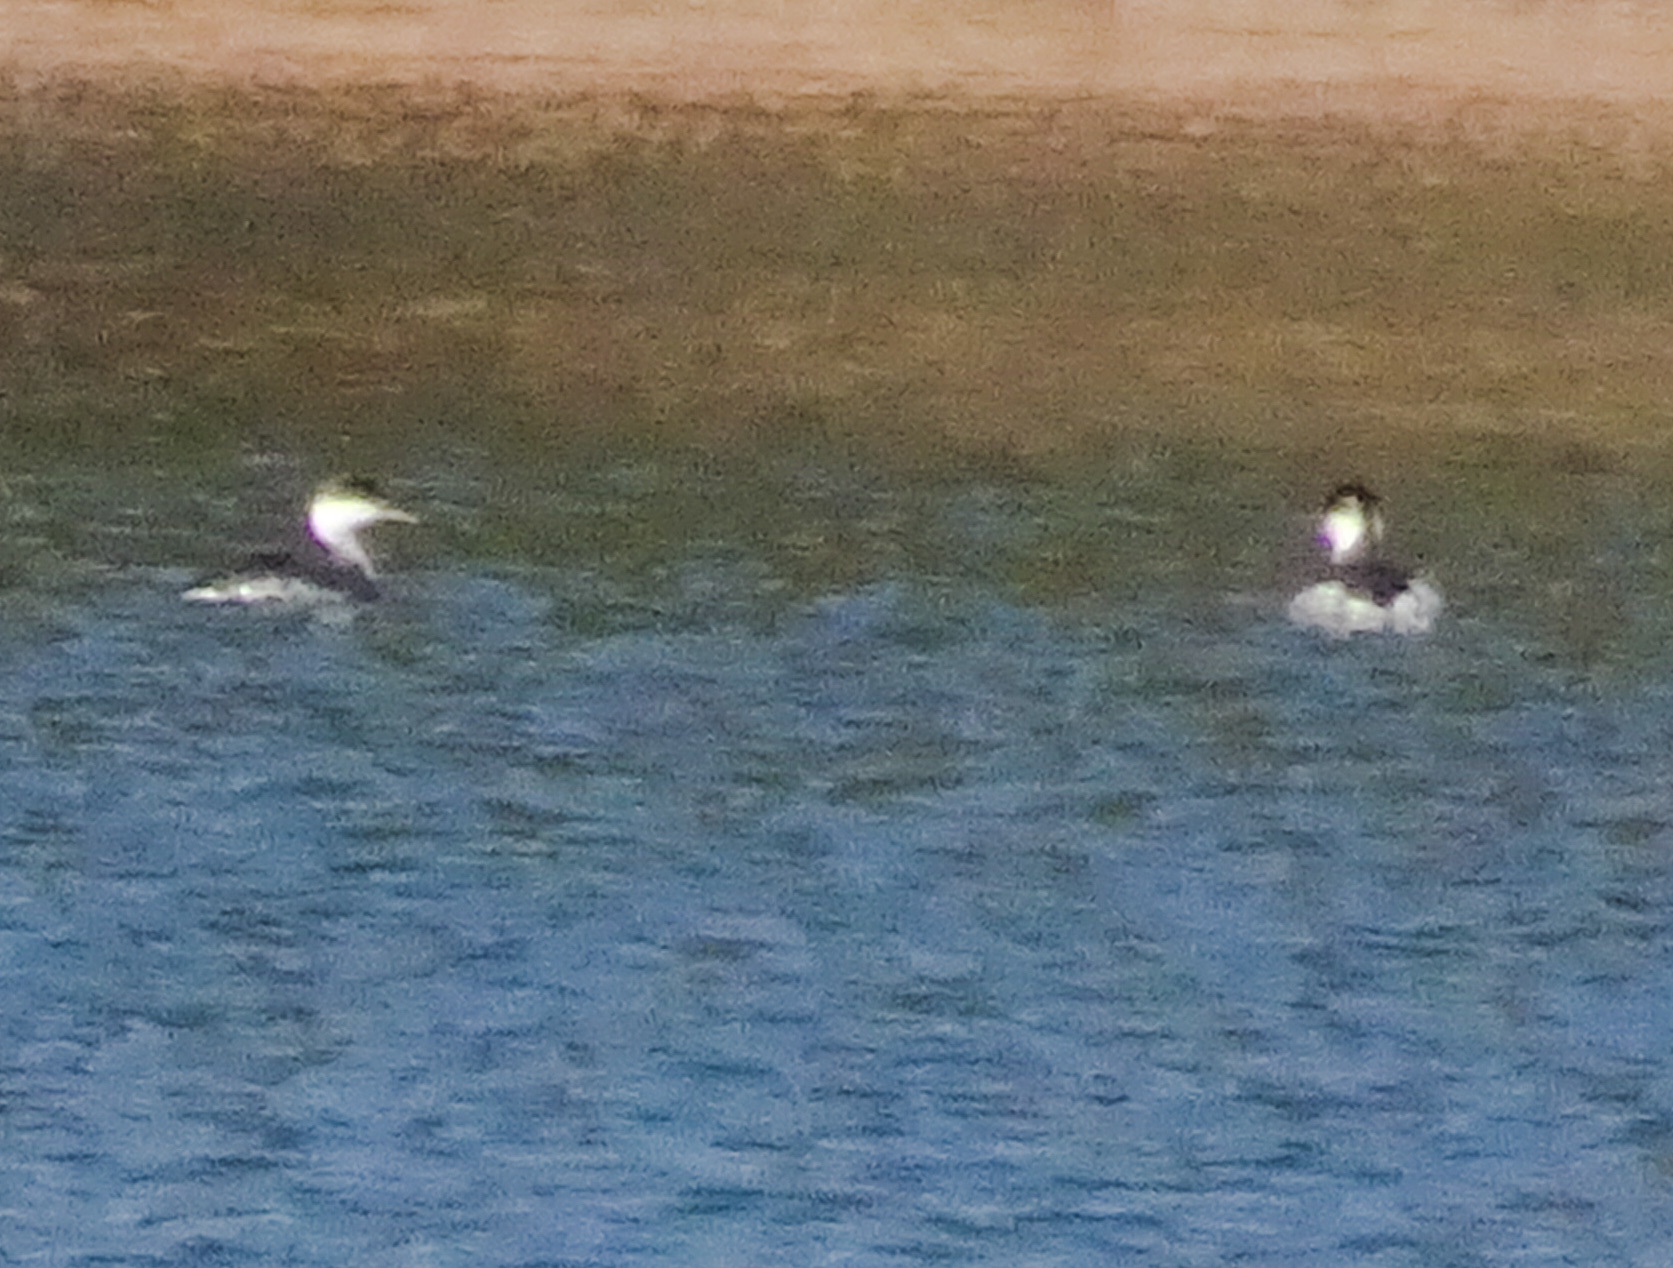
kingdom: Animalia
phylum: Chordata
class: Aves
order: Podicipediformes
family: Podicipedidae
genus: Podiceps
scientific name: Podiceps auritus
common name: Horned grebe
